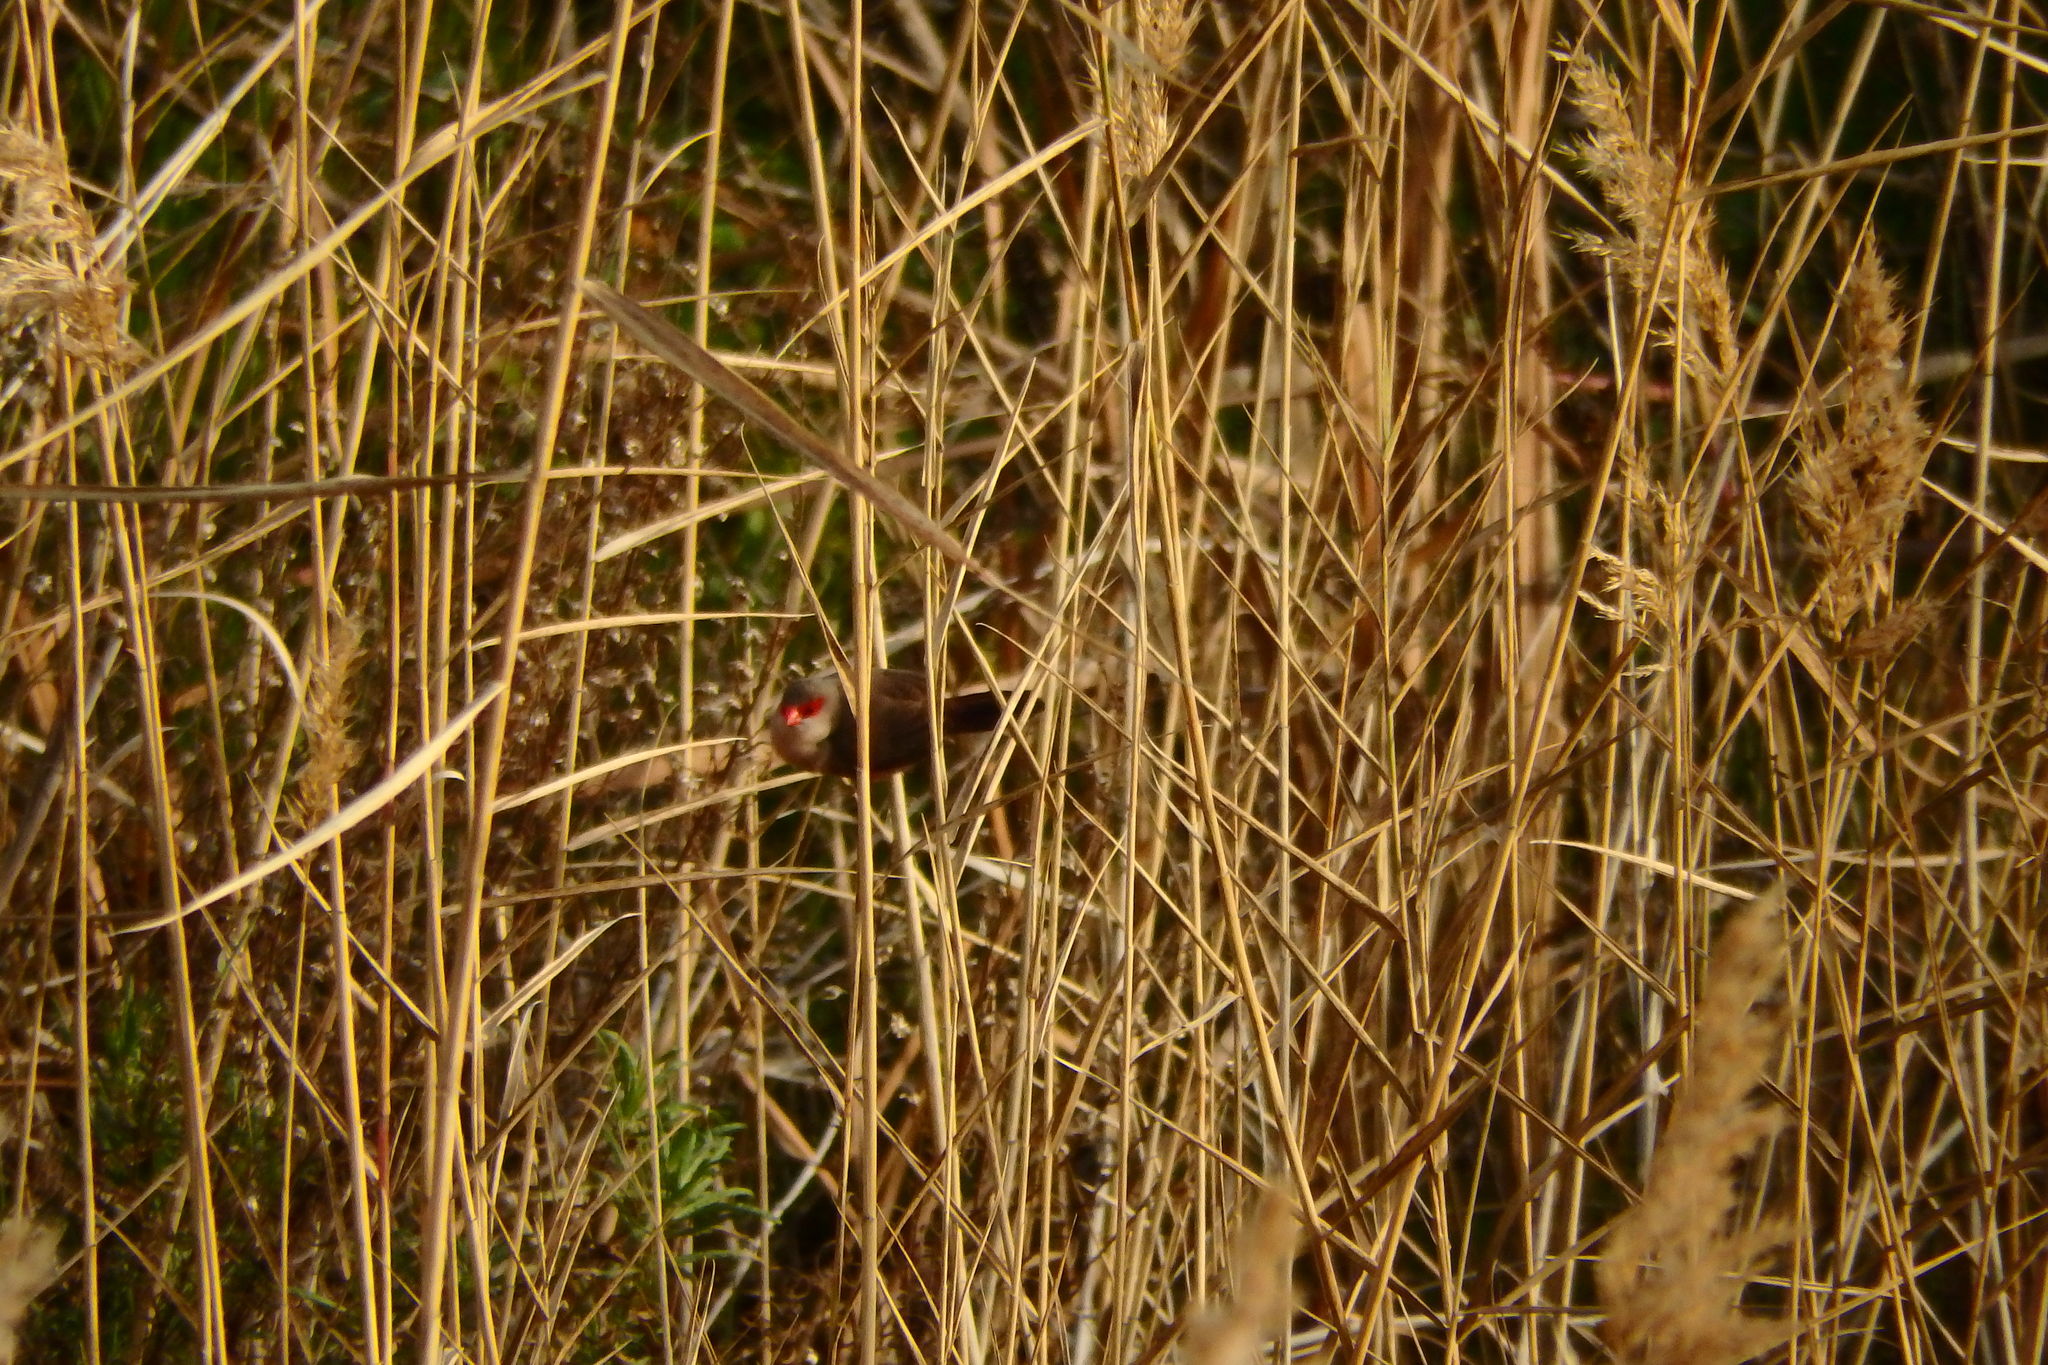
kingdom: Animalia
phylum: Chordata
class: Aves
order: Passeriformes
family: Estrildidae
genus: Estrilda
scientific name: Estrilda astrild
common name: Common waxbill
